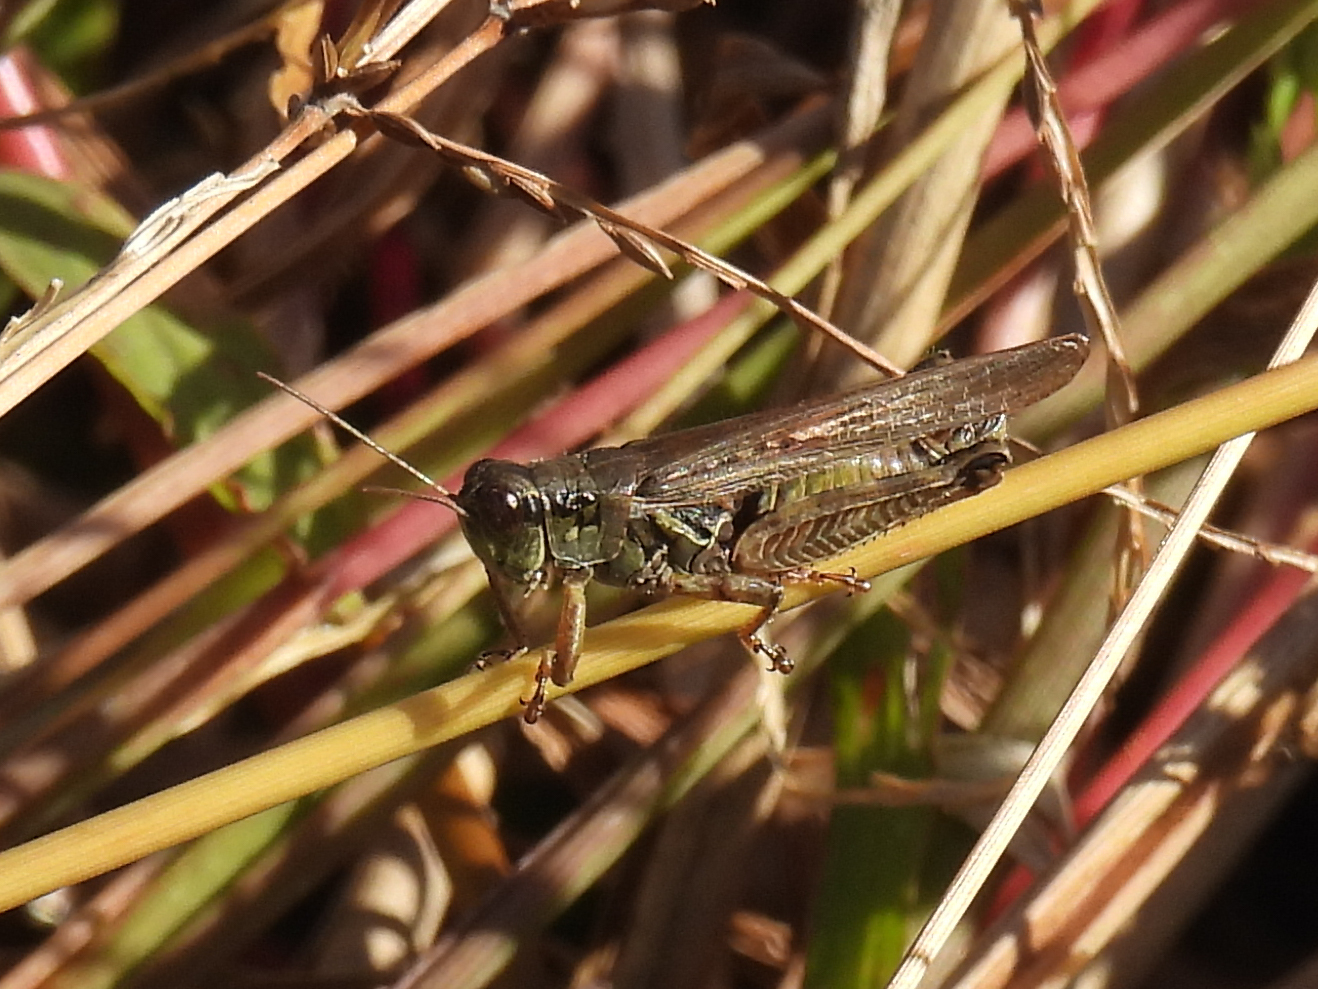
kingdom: Animalia
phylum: Arthropoda
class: Insecta
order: Orthoptera
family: Acrididae
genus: Melanoplus
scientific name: Melanoplus femurrubrum
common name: Red-legged grasshopper
